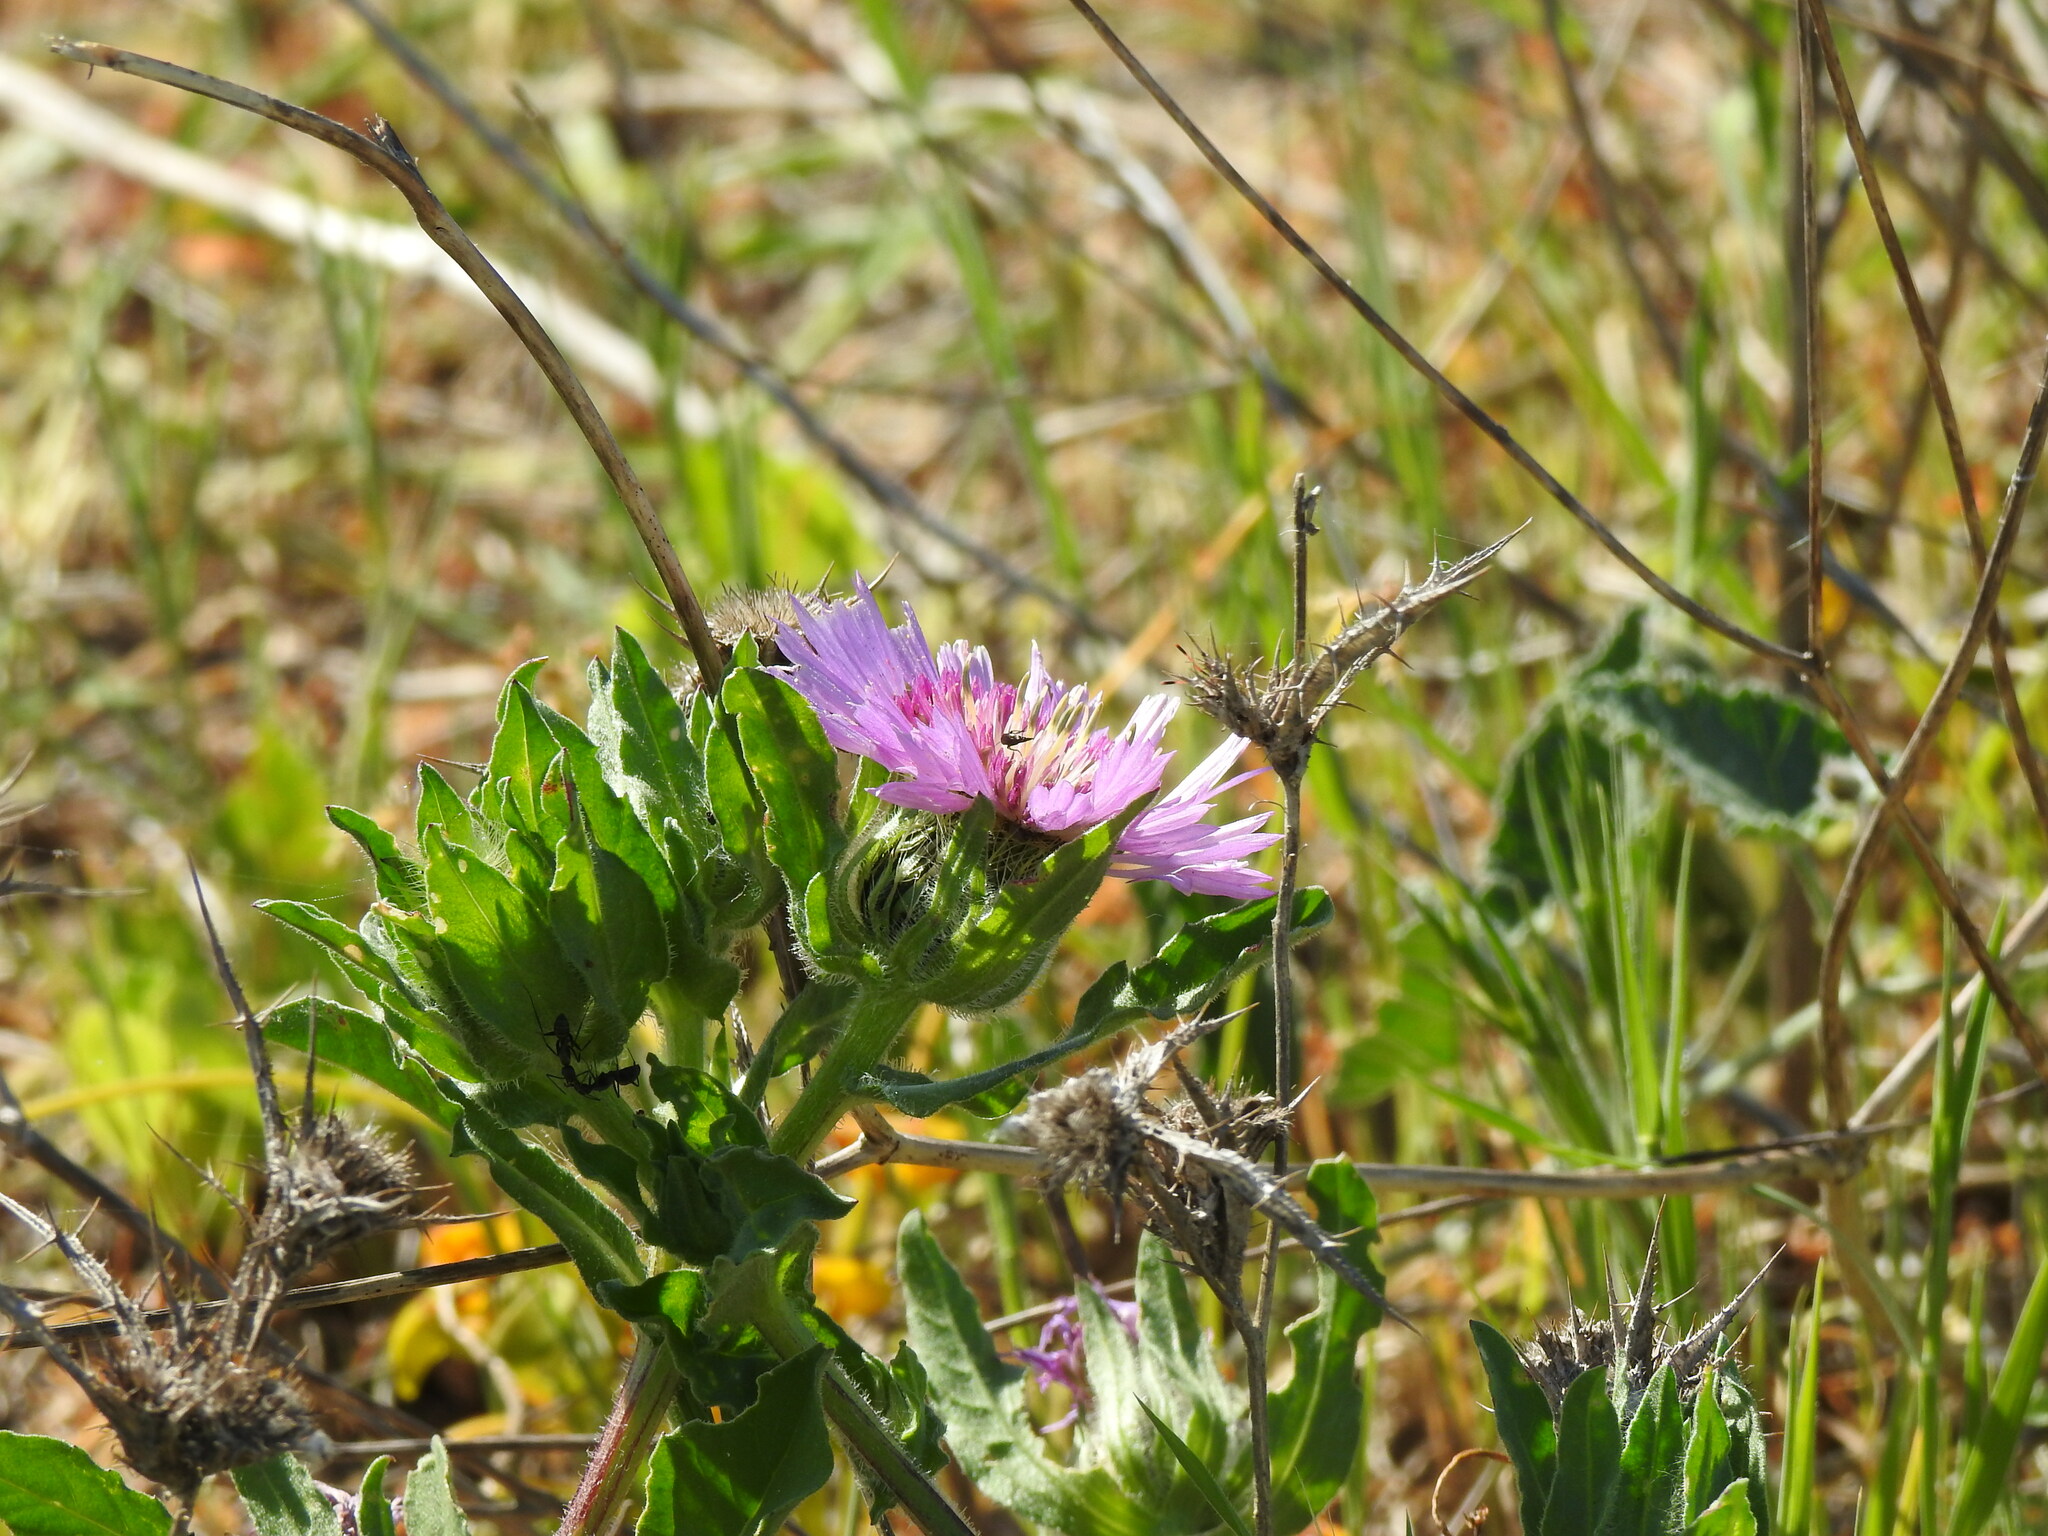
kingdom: Plantae
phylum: Tracheophyta
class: Magnoliopsida
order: Asterales
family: Asteraceae
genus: Centaurea
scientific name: Centaurea pullata
